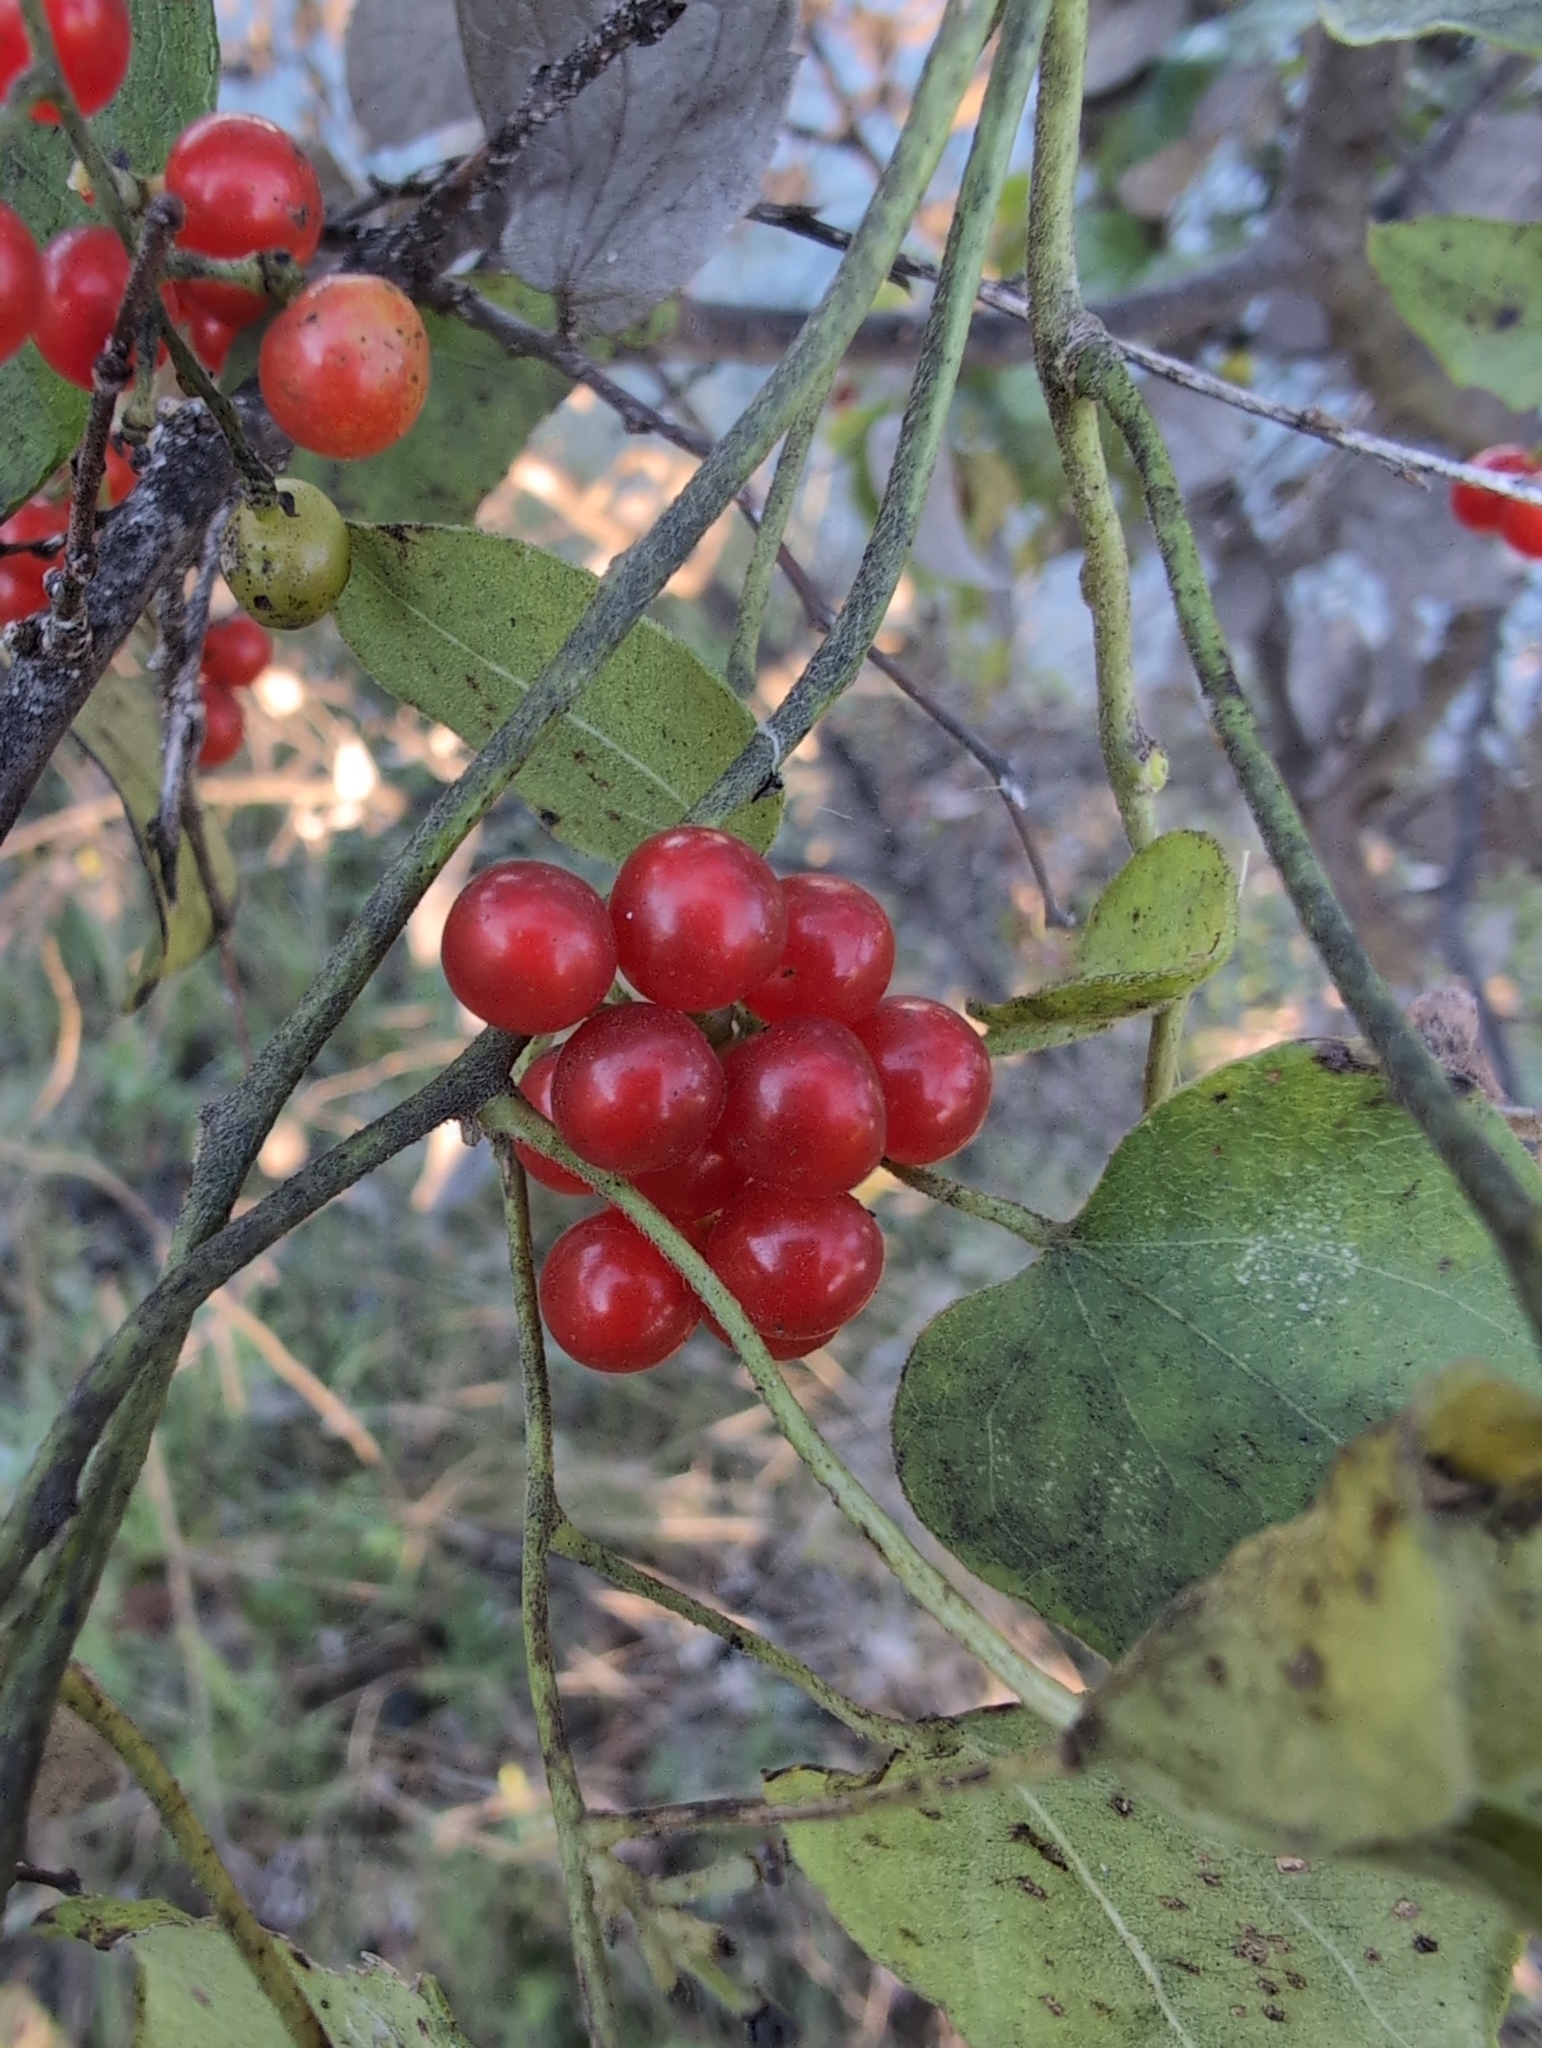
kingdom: Plantae
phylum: Tracheophyta
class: Magnoliopsida
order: Ranunculales
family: Menispermaceae
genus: Cocculus
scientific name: Cocculus carolinus
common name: Carolina moonseed
